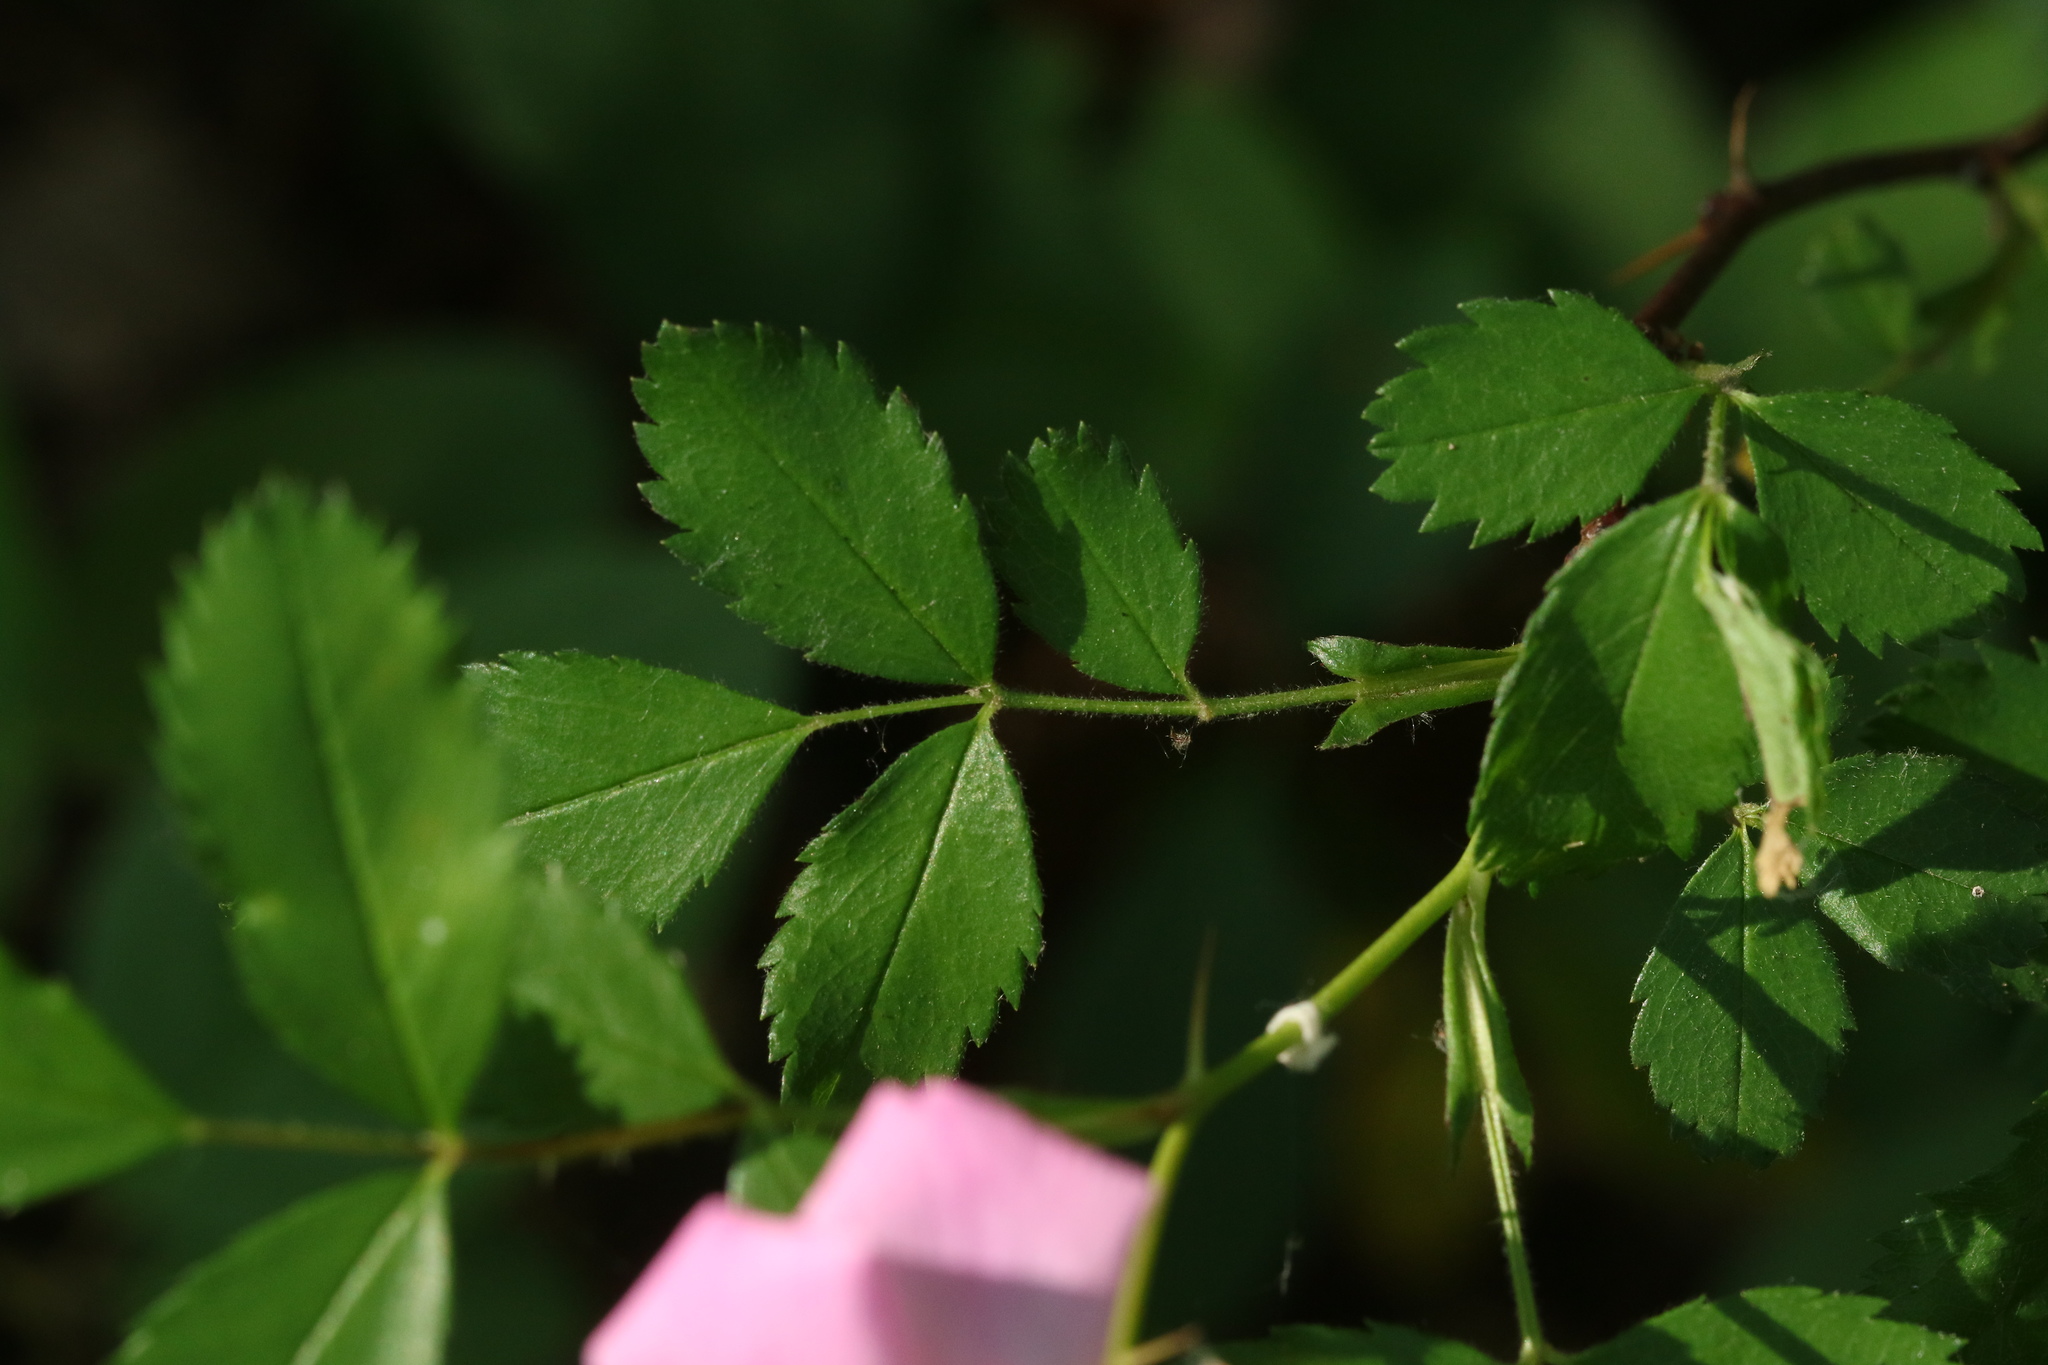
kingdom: Plantae
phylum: Tracheophyta
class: Magnoliopsida
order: Rosales
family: Rosaceae
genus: Rosa
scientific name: Rosa carolina
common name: Pasture rose
